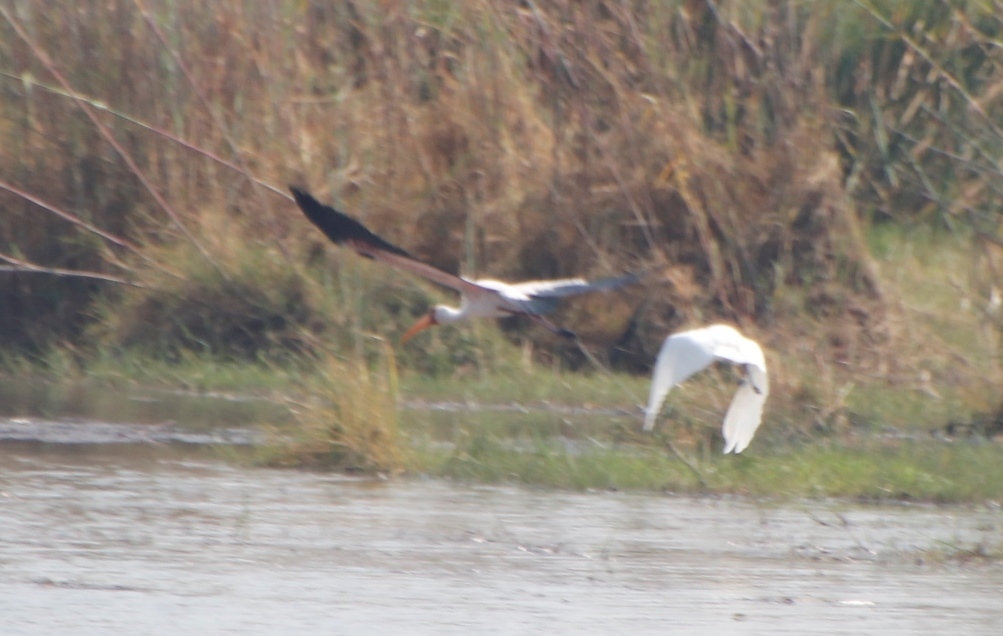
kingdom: Animalia
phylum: Chordata
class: Aves
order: Pelecaniformes
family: Ardeidae
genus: Ardea
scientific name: Ardea alba
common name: Great egret
